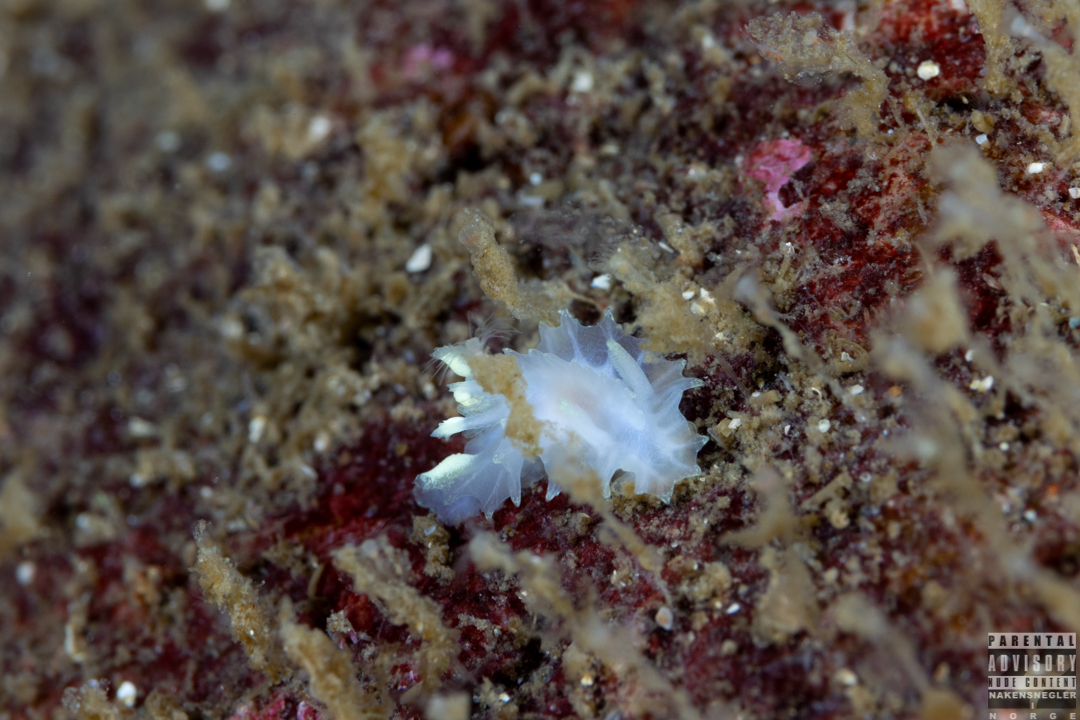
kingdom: Animalia
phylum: Mollusca
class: Gastropoda
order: Nudibranchia
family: Goniodorididae
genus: Lophodoris
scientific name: Lophodoris danielsseni
